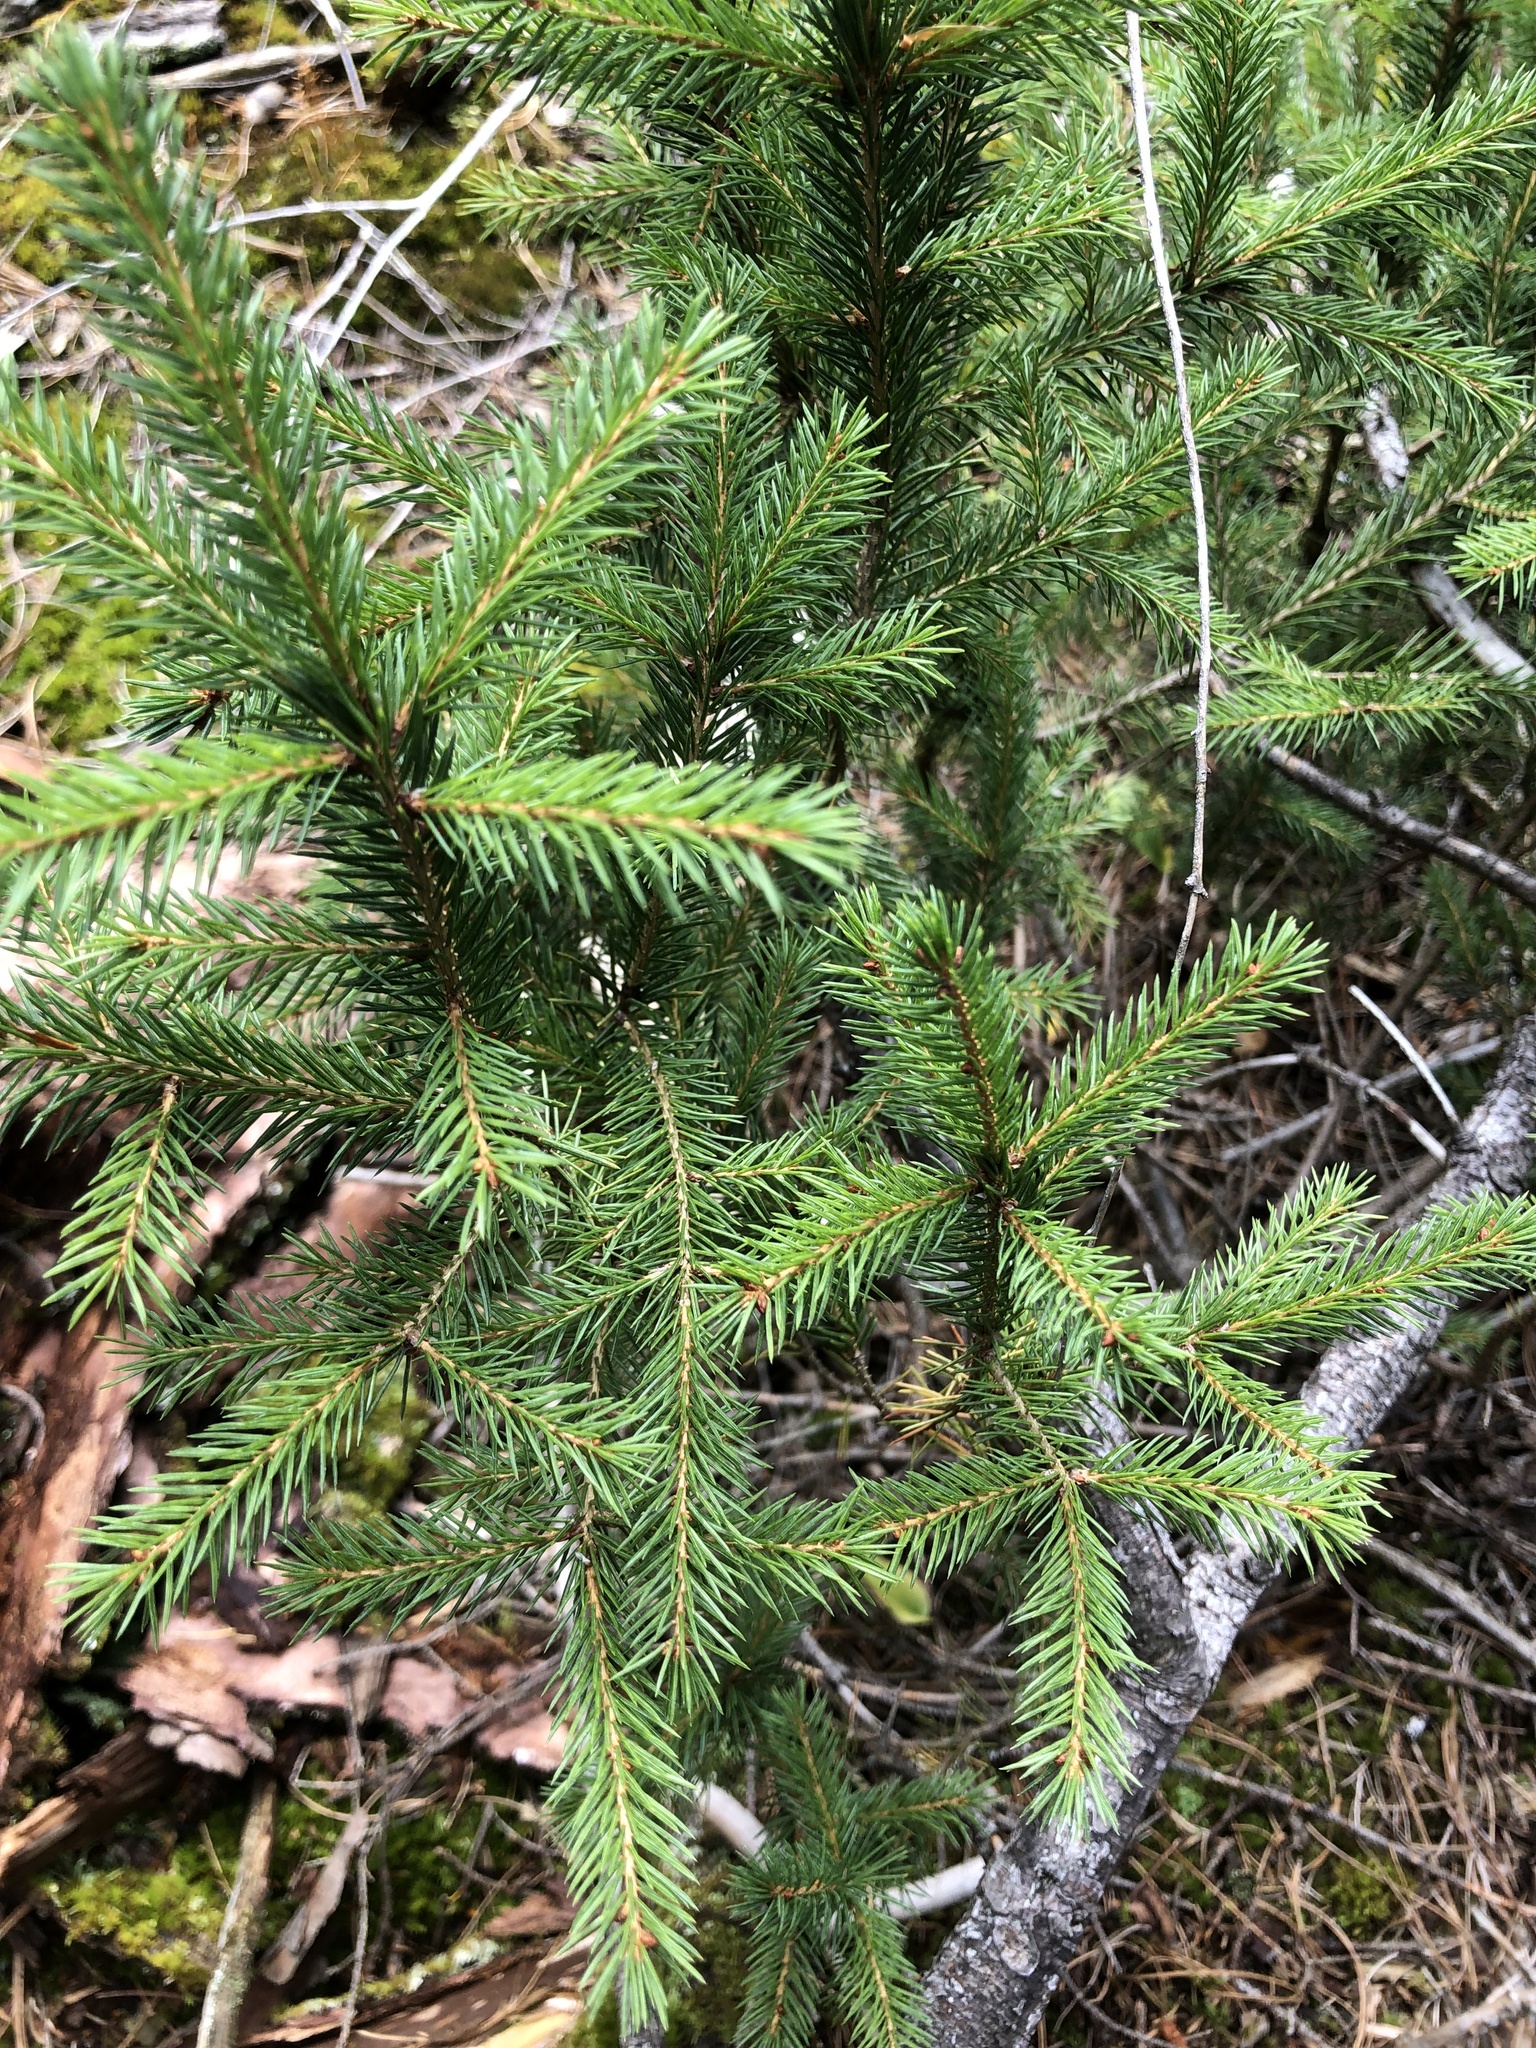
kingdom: Plantae
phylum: Tracheophyta
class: Pinopsida
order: Pinales
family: Pinaceae
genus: Picea
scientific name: Picea rubens
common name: Red spruce
